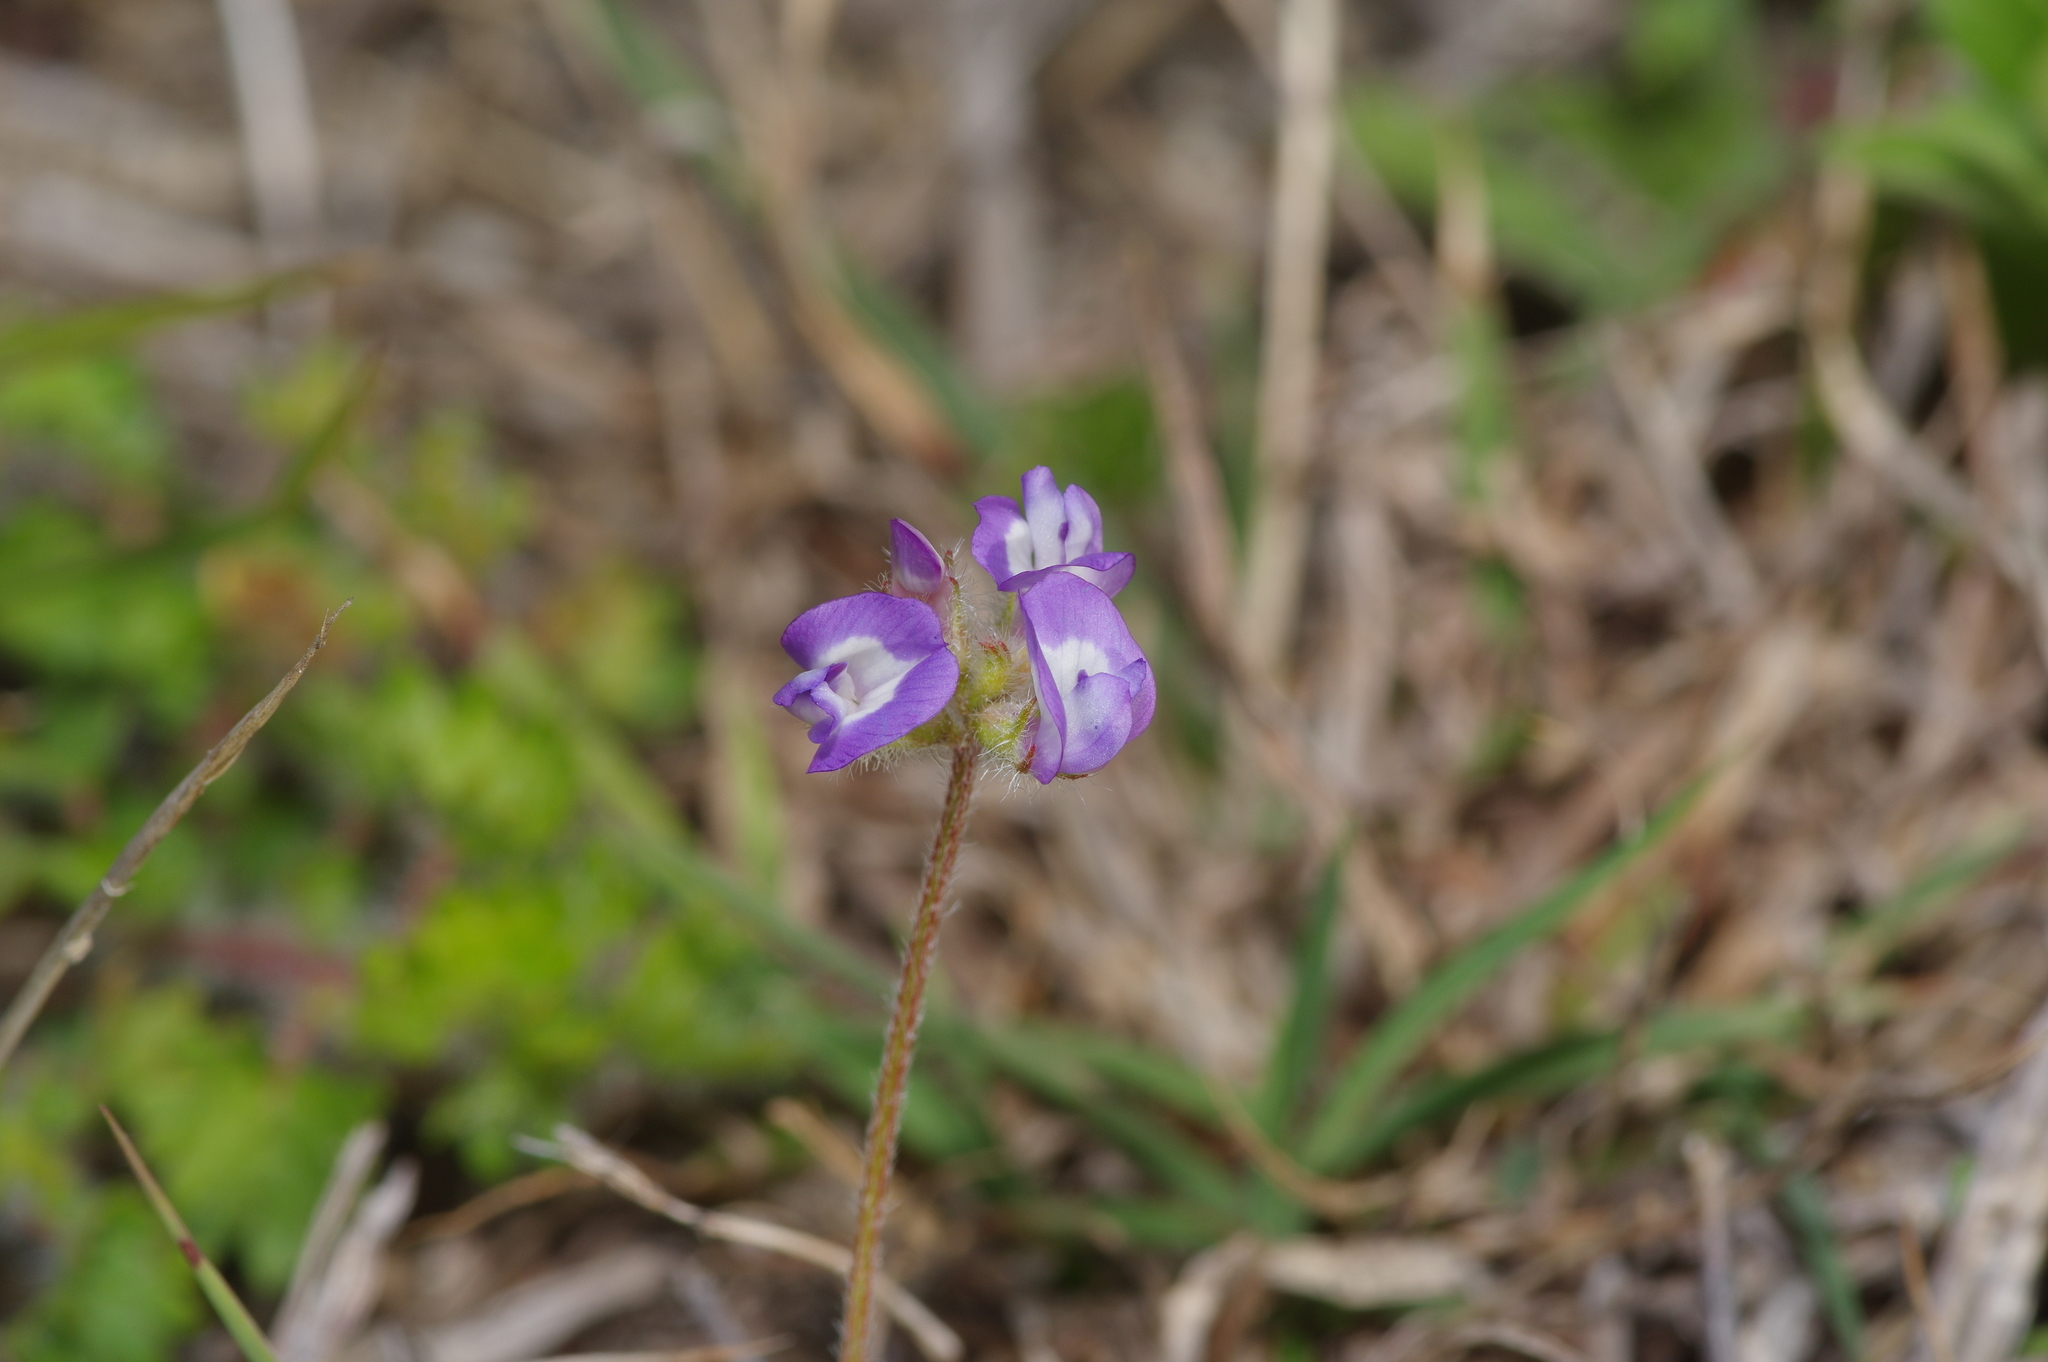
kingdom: Plantae
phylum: Tracheophyta
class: Magnoliopsida
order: Fabales
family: Fabaceae
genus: Astragalus
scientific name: Astragalus nuttallianus
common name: Smallflowered milkvetch
